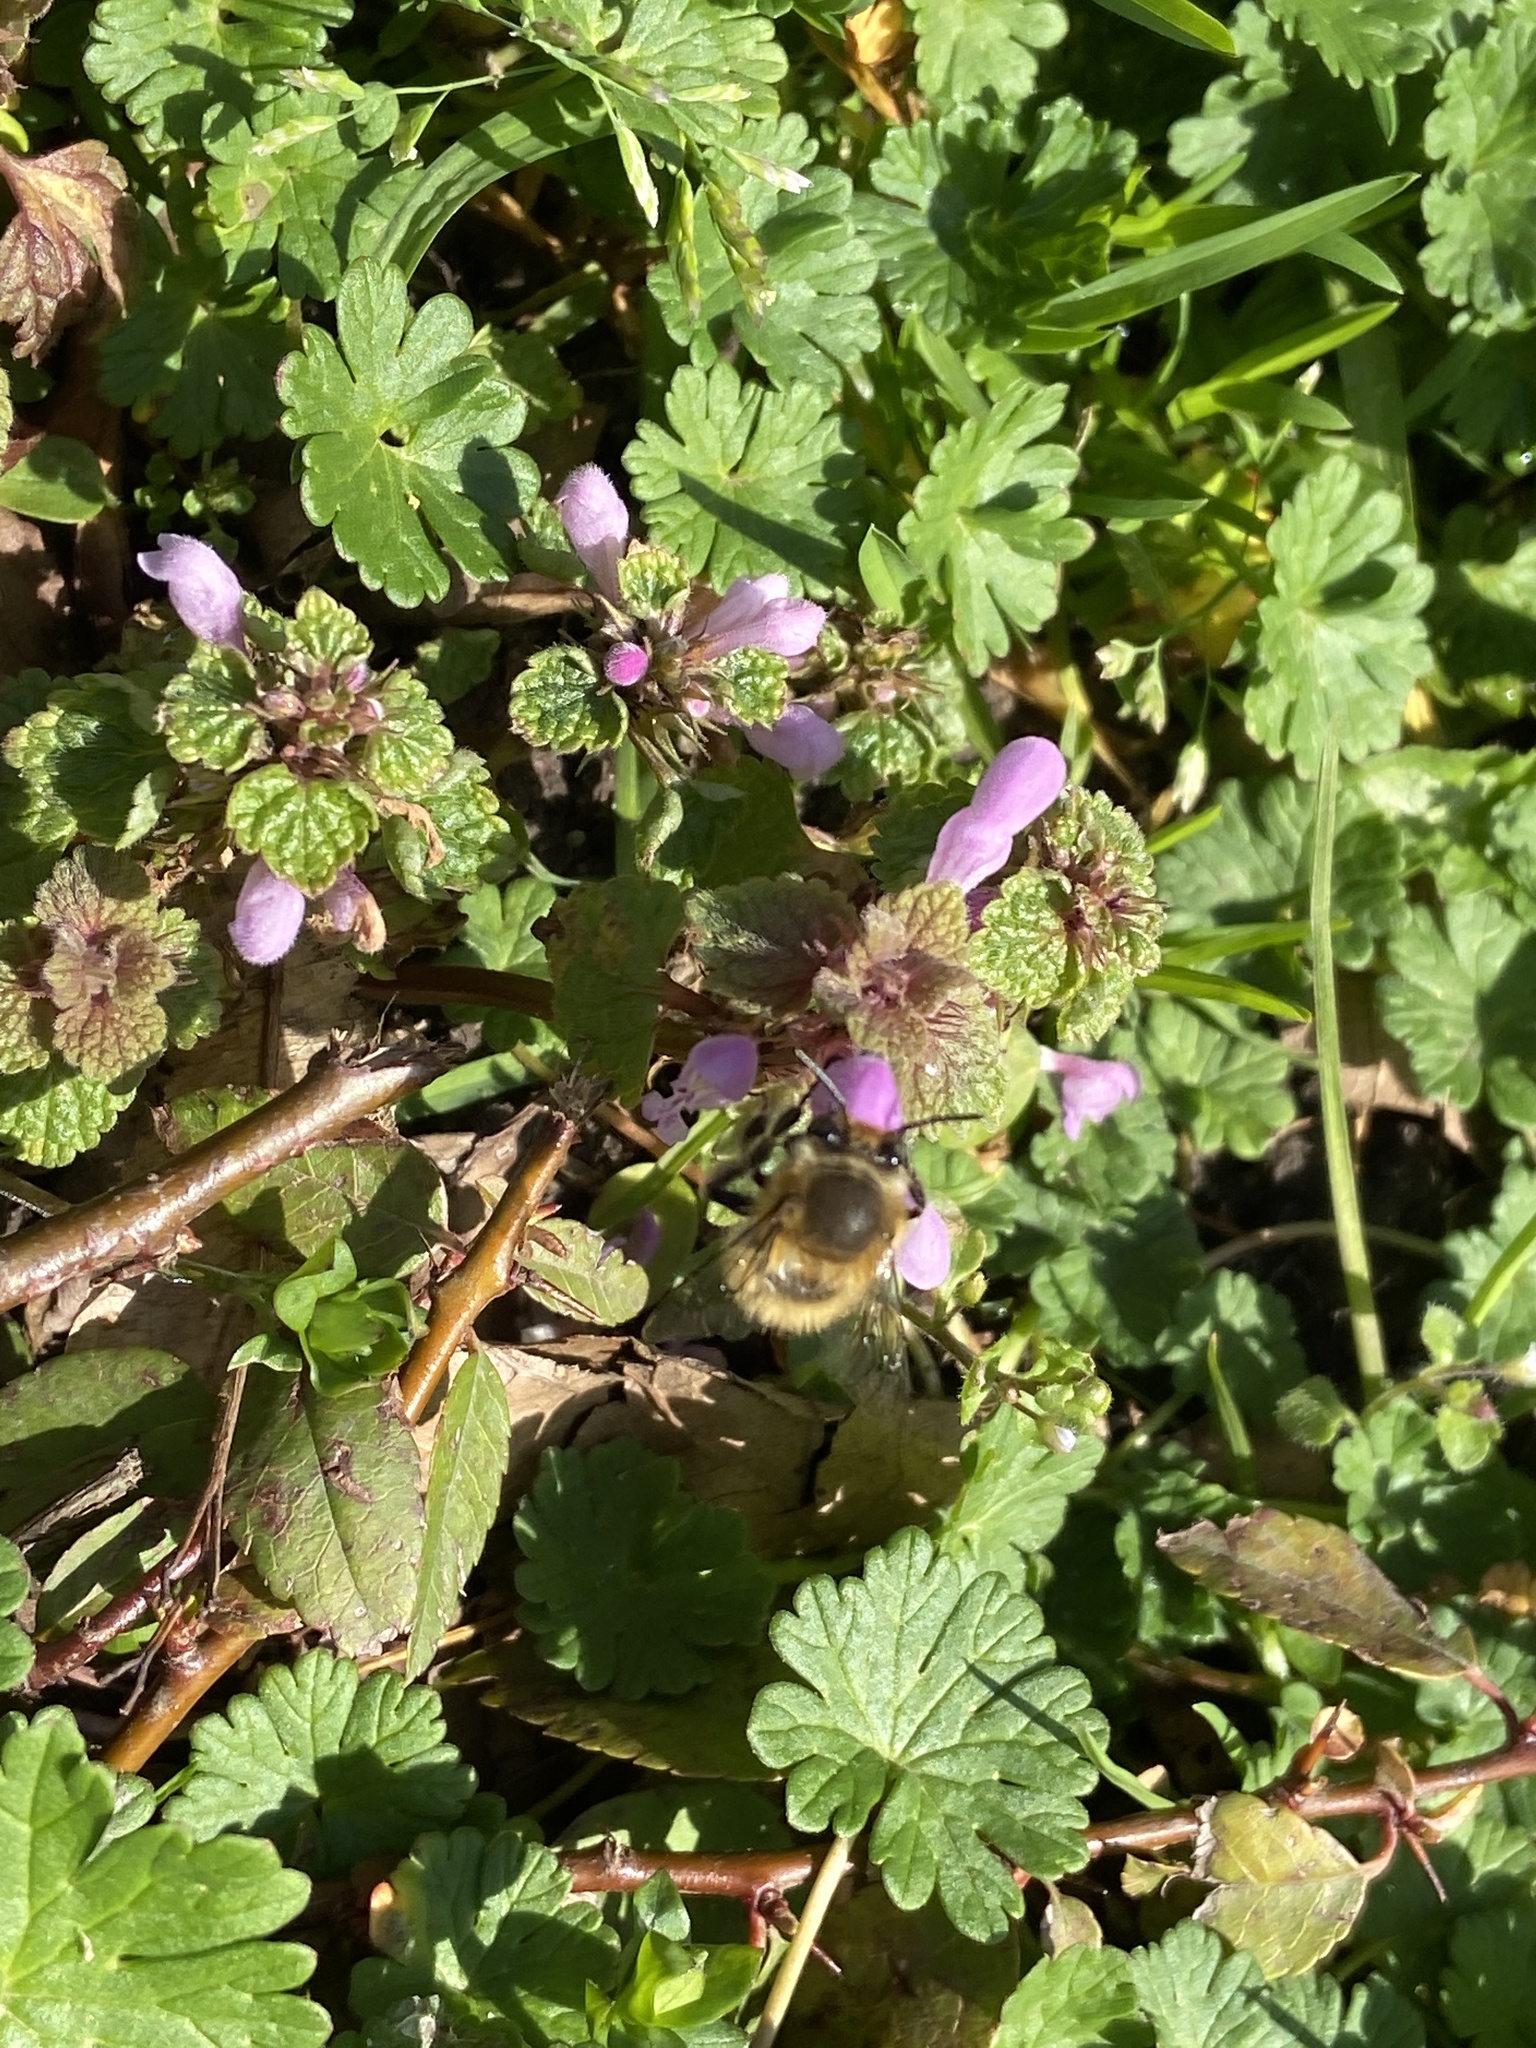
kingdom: Animalia
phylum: Arthropoda
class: Insecta
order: Hymenoptera
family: Apidae
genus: Anthophora
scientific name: Anthophora plumipes
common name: Hairy-footed flower bee
